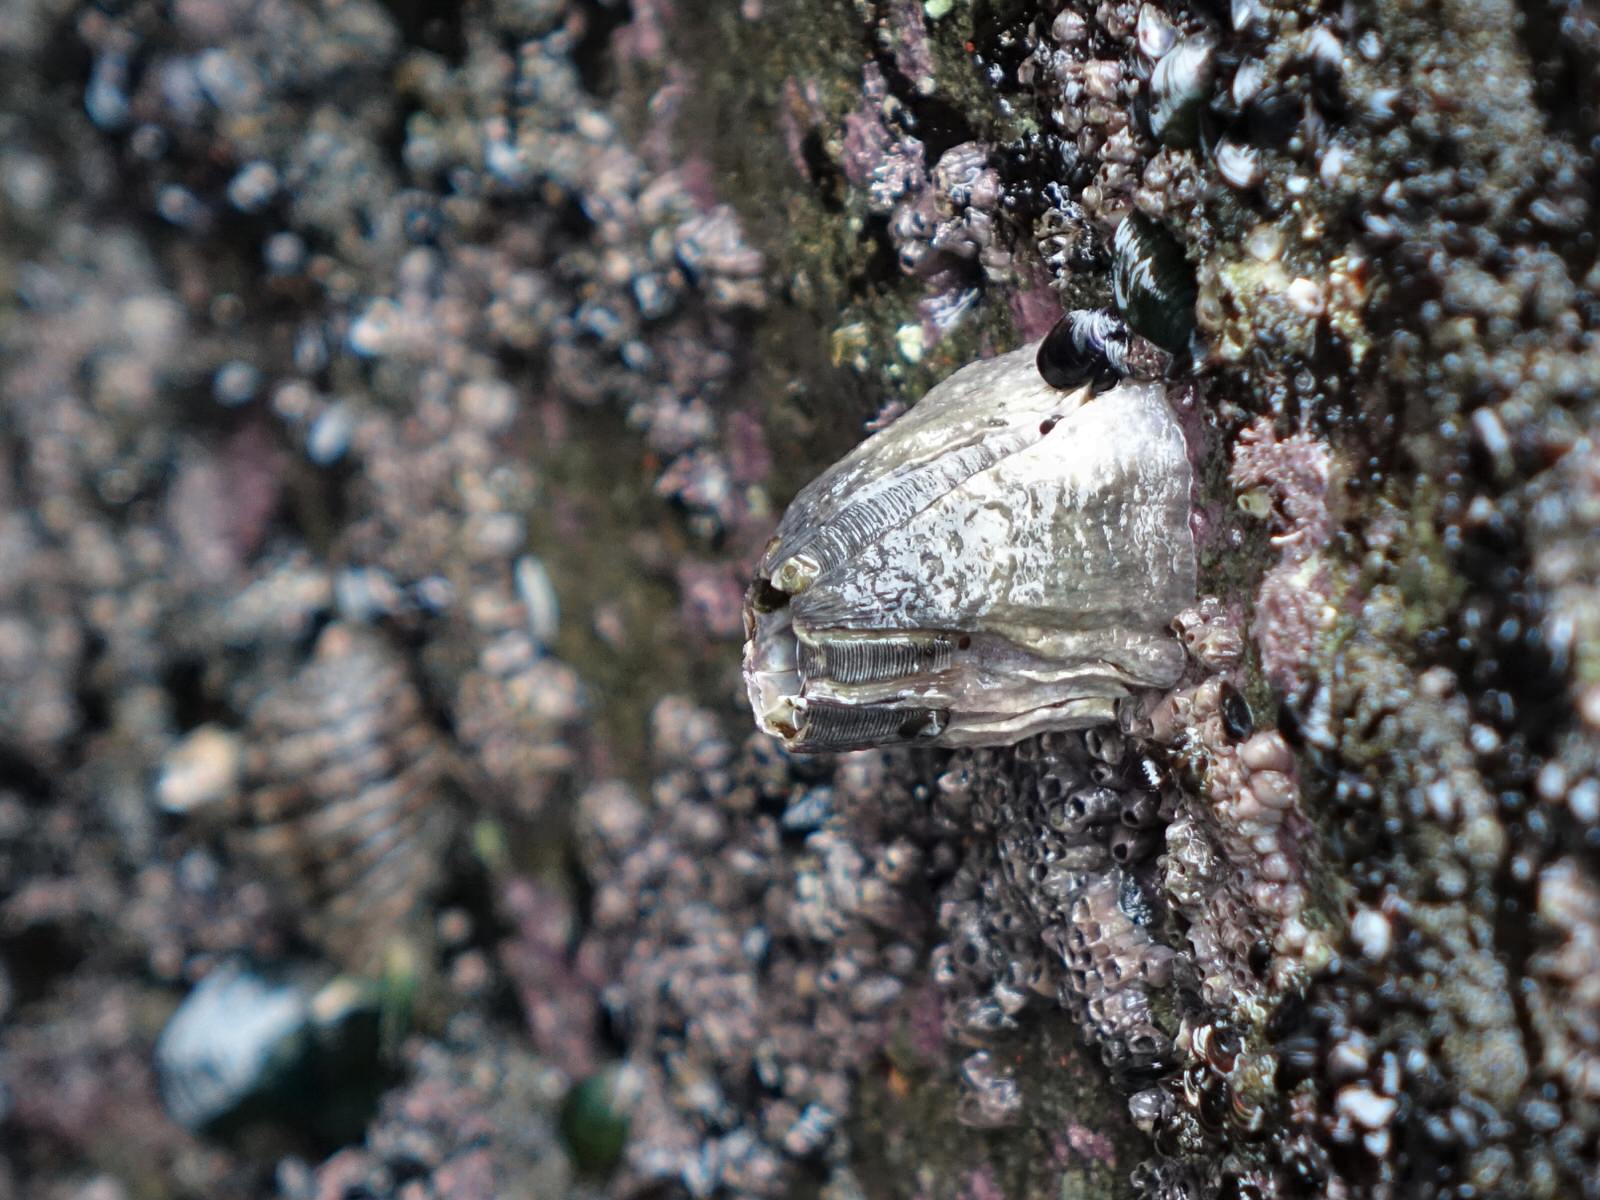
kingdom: Animalia
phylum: Arthropoda
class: Maxillopoda
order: Sessilia
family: Balanidae
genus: Austromegabalanus
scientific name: Austromegabalanus nigrescens
